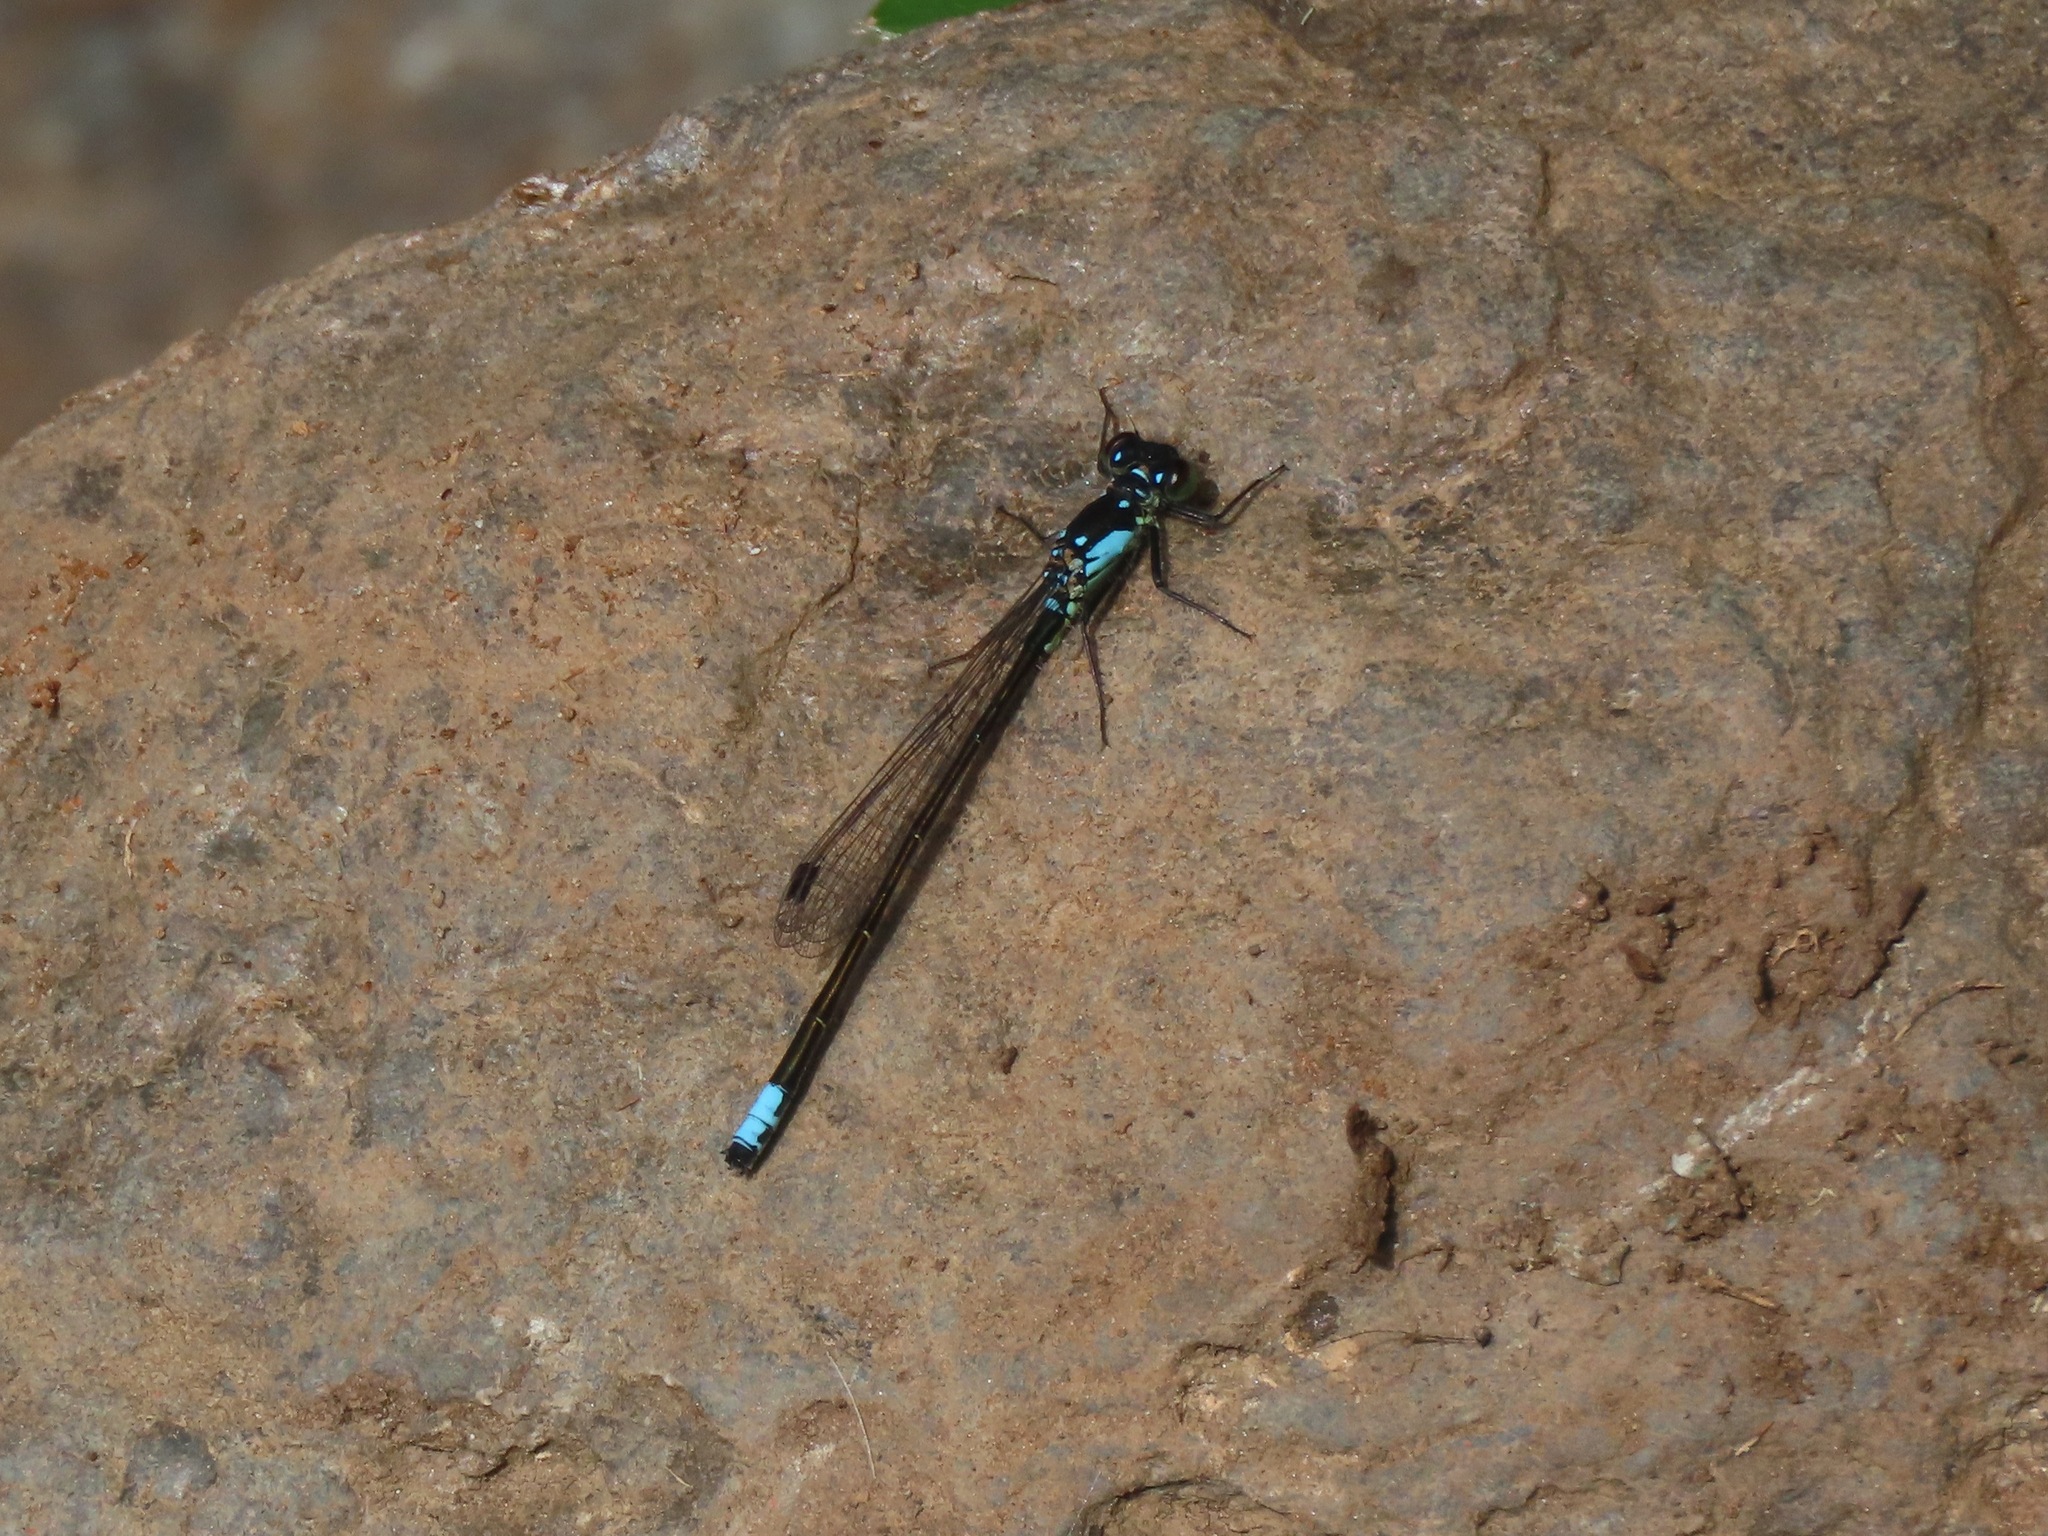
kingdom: Animalia
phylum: Arthropoda
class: Insecta
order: Odonata
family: Coenagrionidae
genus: Ischnura
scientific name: Ischnura cervula
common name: Pacific forktail
